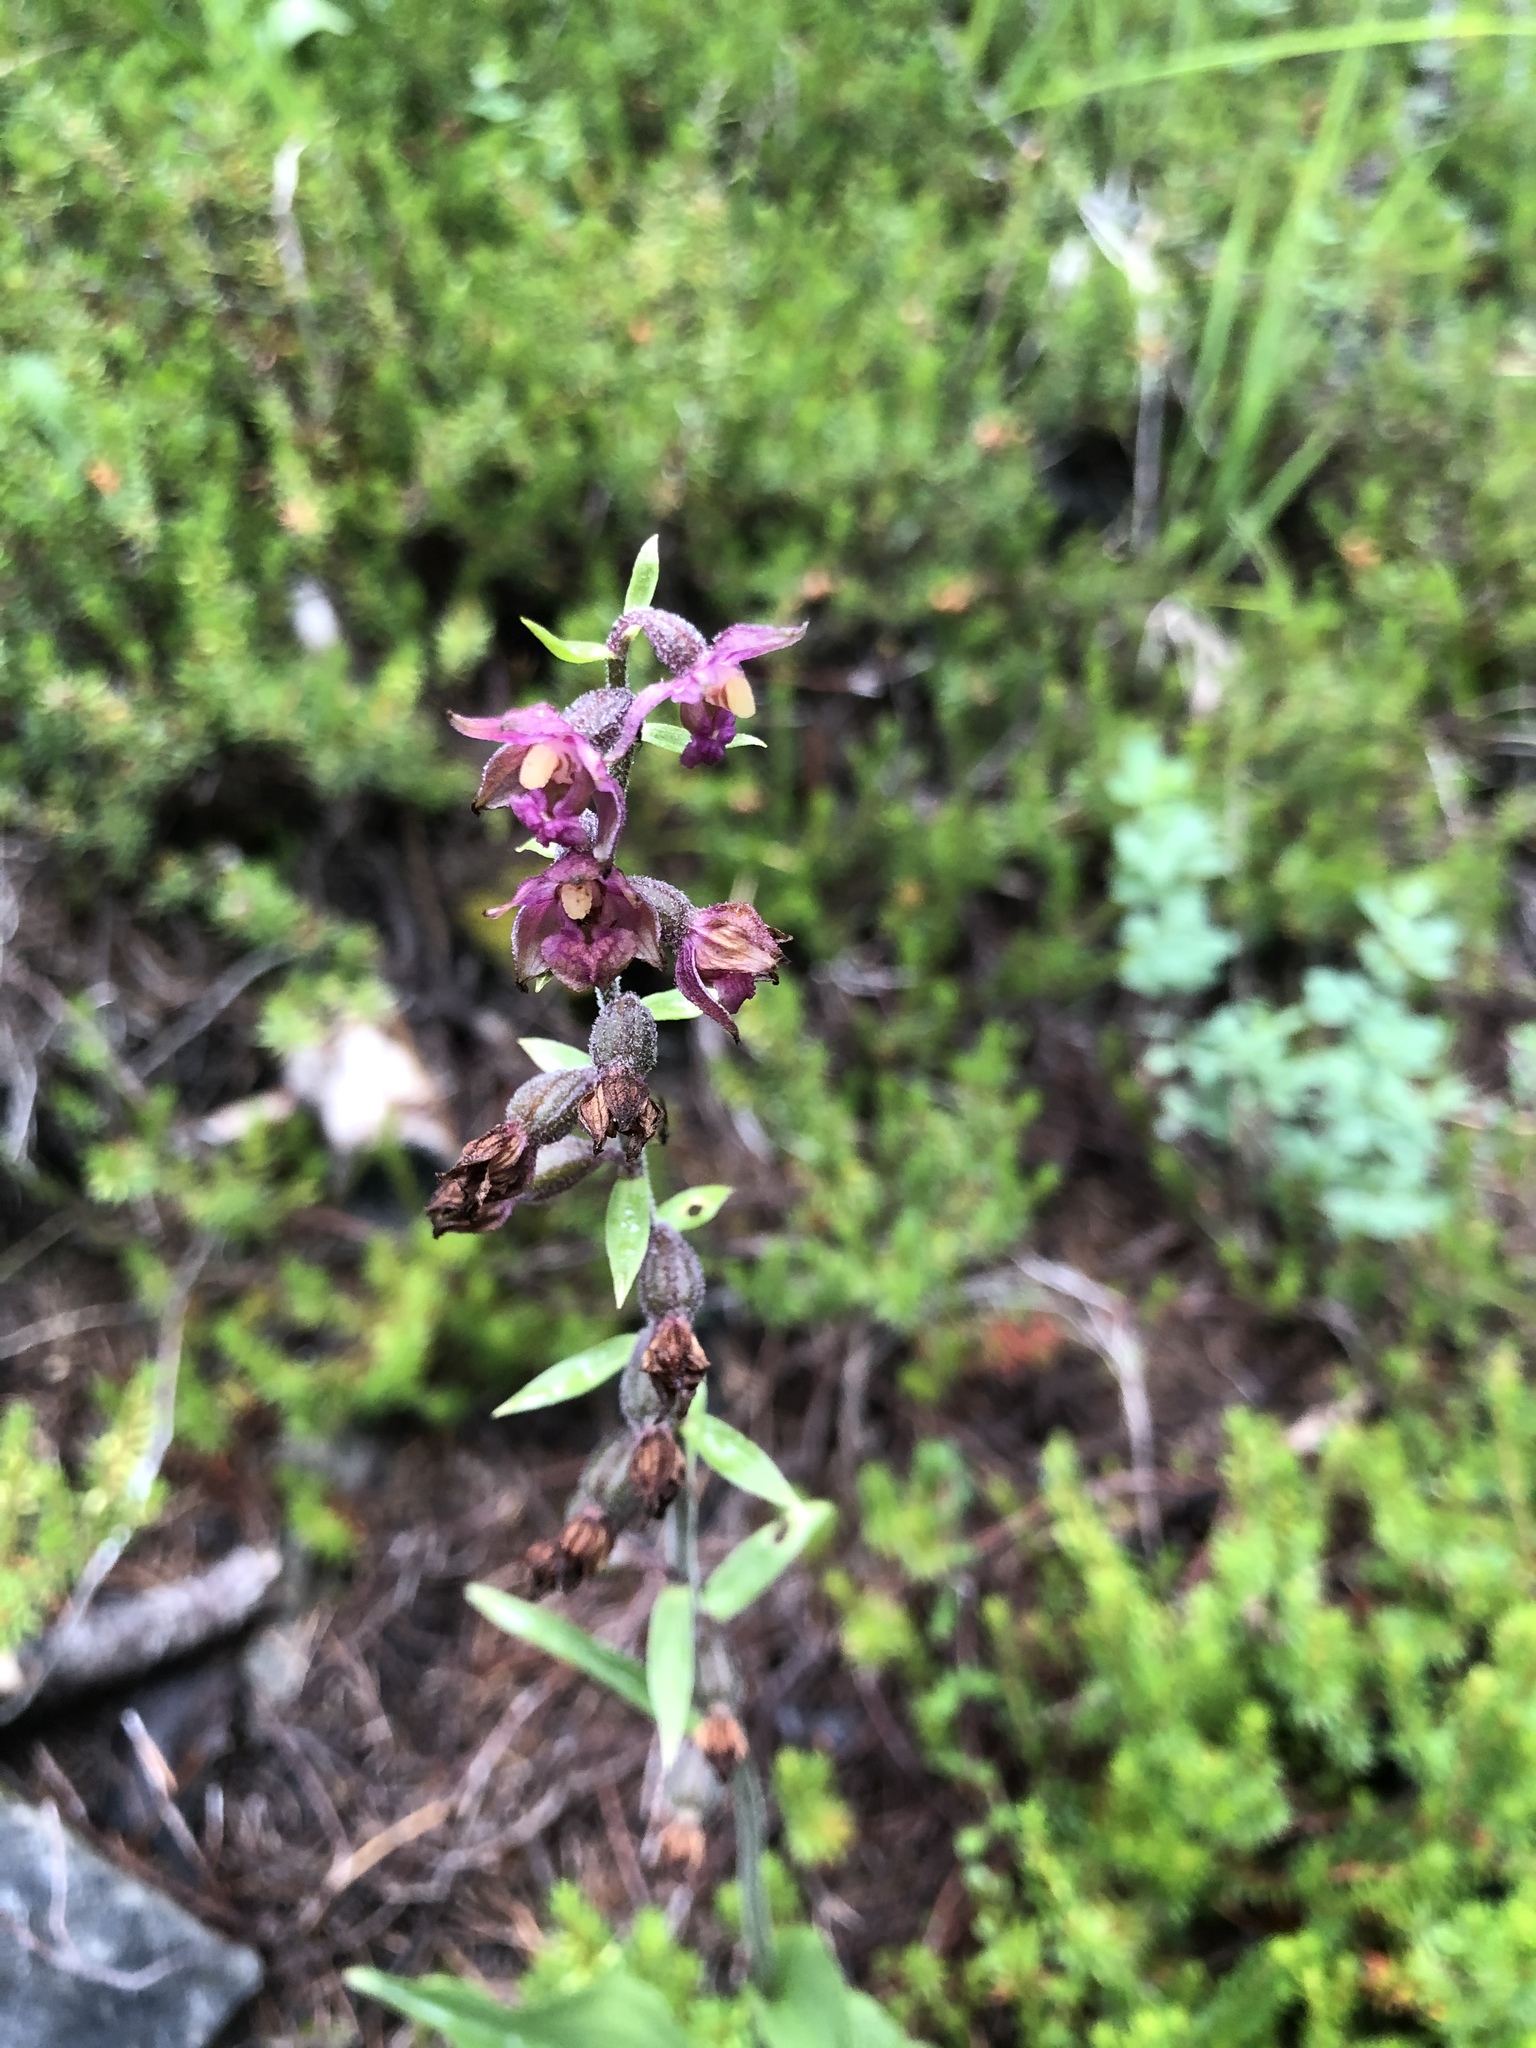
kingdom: Plantae
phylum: Tracheophyta
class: Liliopsida
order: Asparagales
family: Orchidaceae
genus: Epipactis
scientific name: Epipactis atrorubens
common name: Dark-red helleborine
